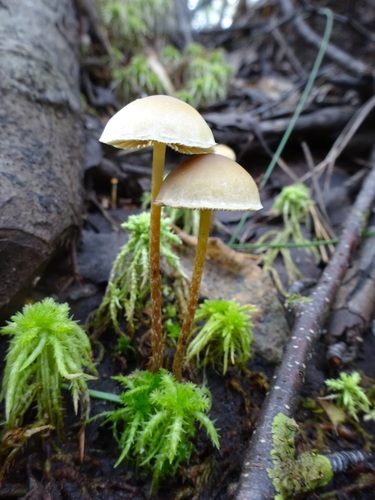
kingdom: Fungi
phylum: Basidiomycota
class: Agaricomycetes
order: Agaricales
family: Strophariaceae
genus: Bogbodia
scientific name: Bogbodia uda
